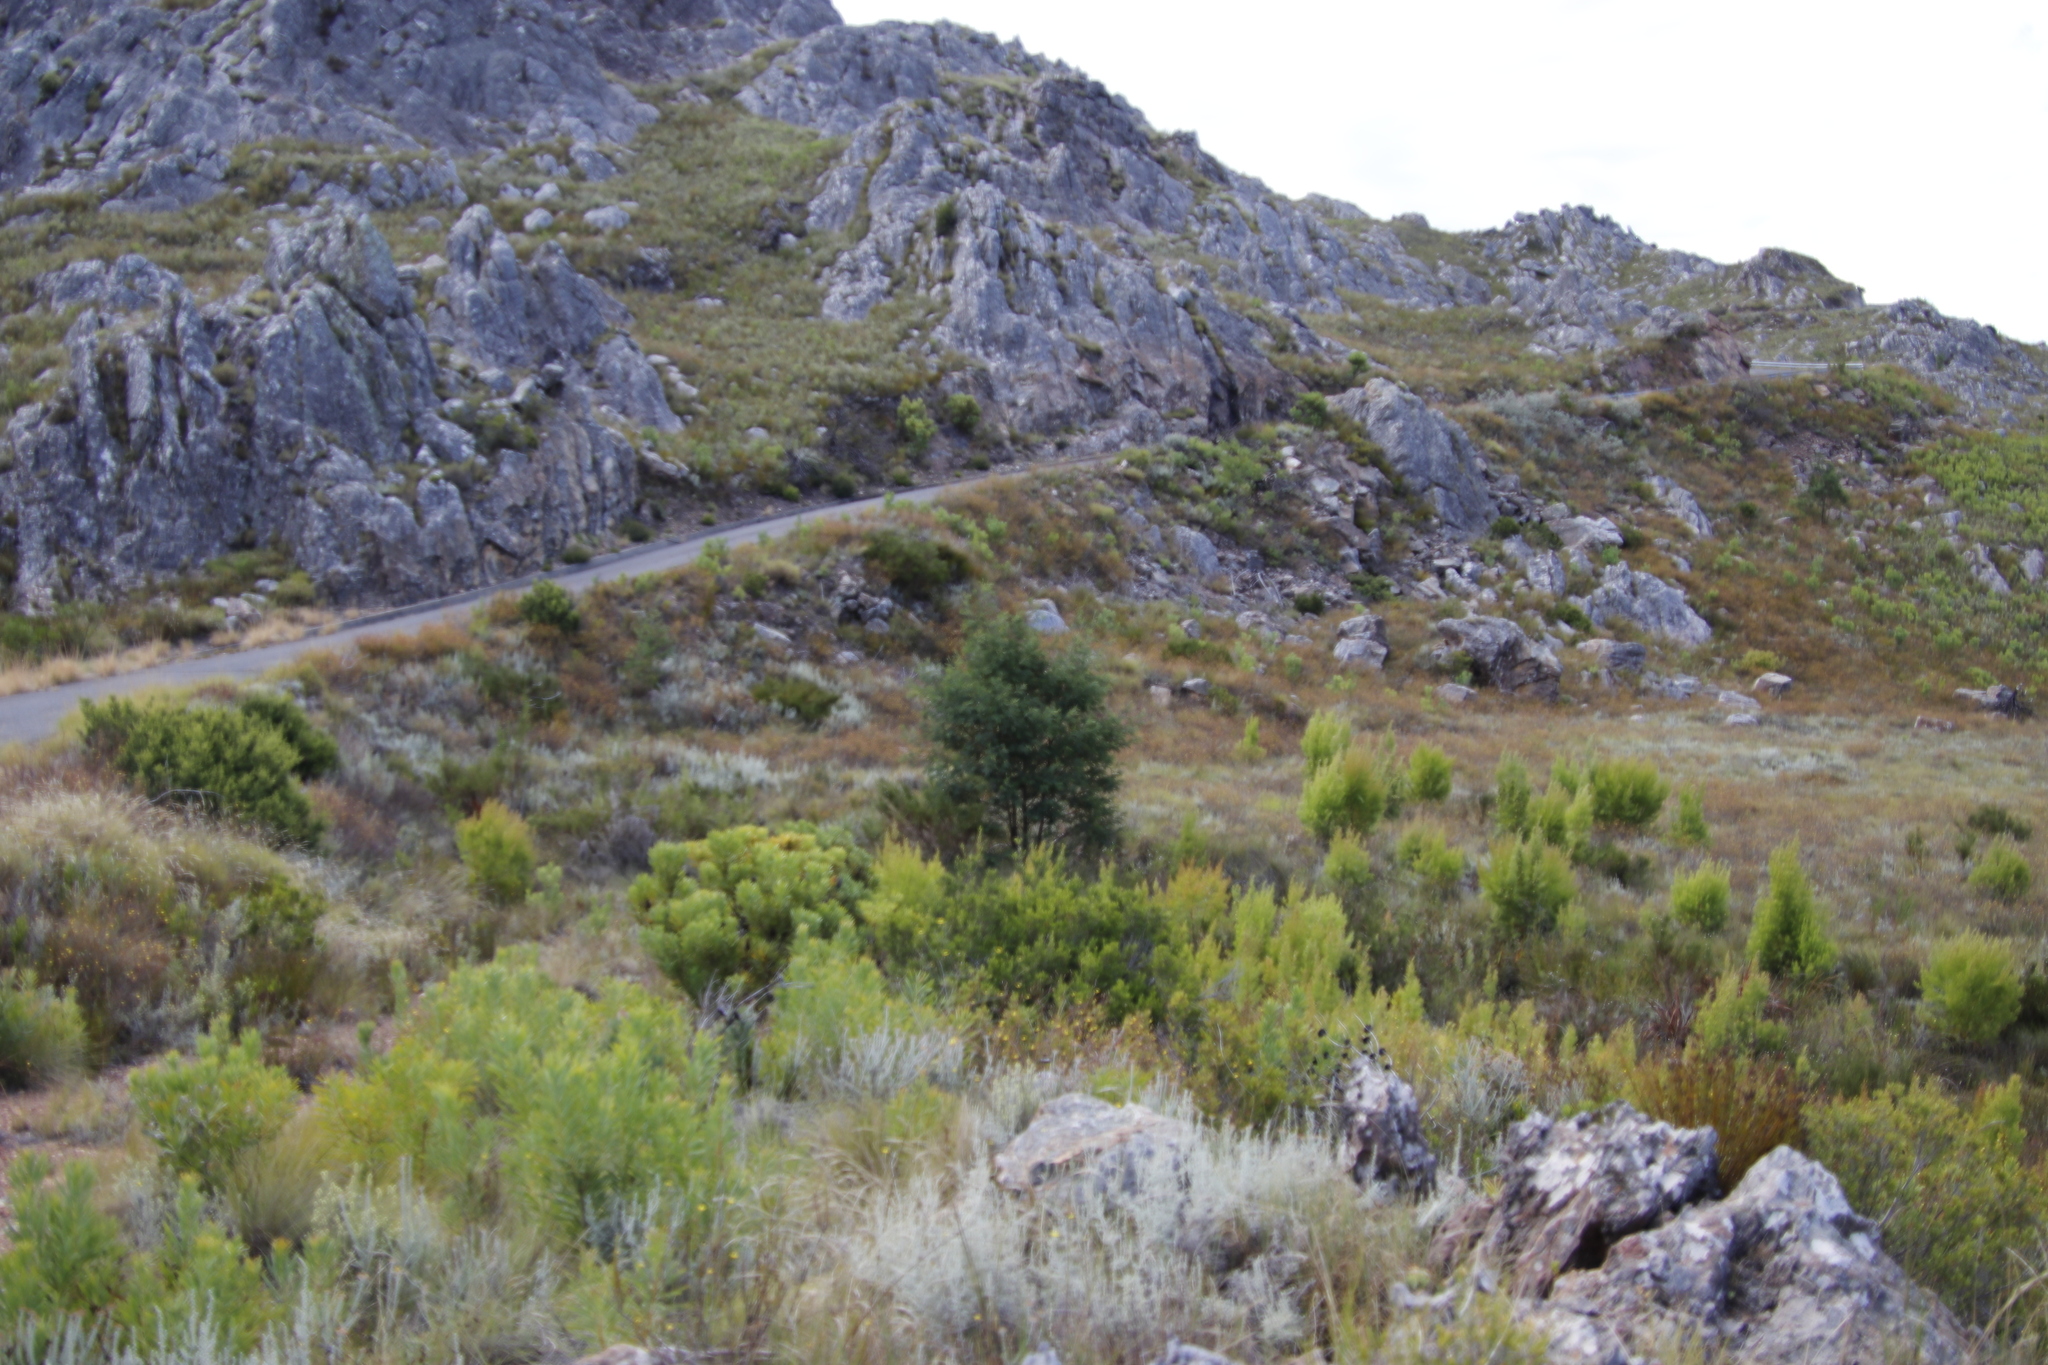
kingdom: Plantae
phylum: Tracheophyta
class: Magnoliopsida
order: Fabales
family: Fabaceae
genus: Acacia
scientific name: Acacia mearnsii
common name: Black wattle
